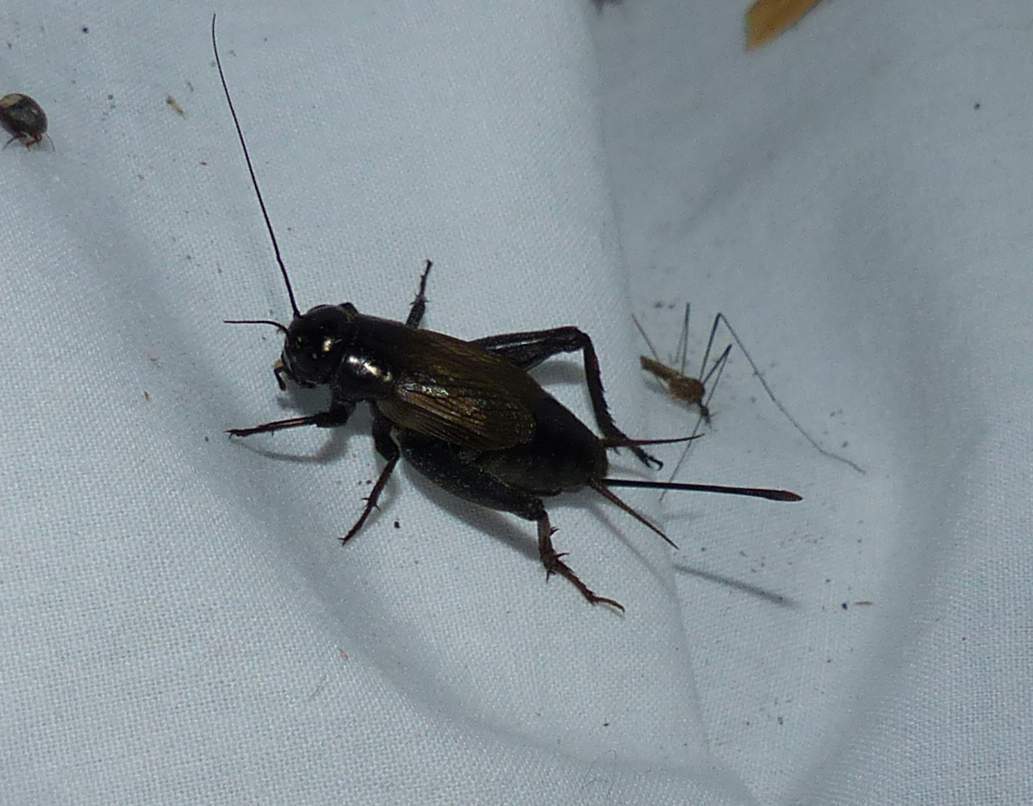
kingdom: Animalia
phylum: Arthropoda
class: Insecta
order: Orthoptera
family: Gryllidae
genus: Gryllus
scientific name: Gryllus veletis
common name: Spring field cricket
